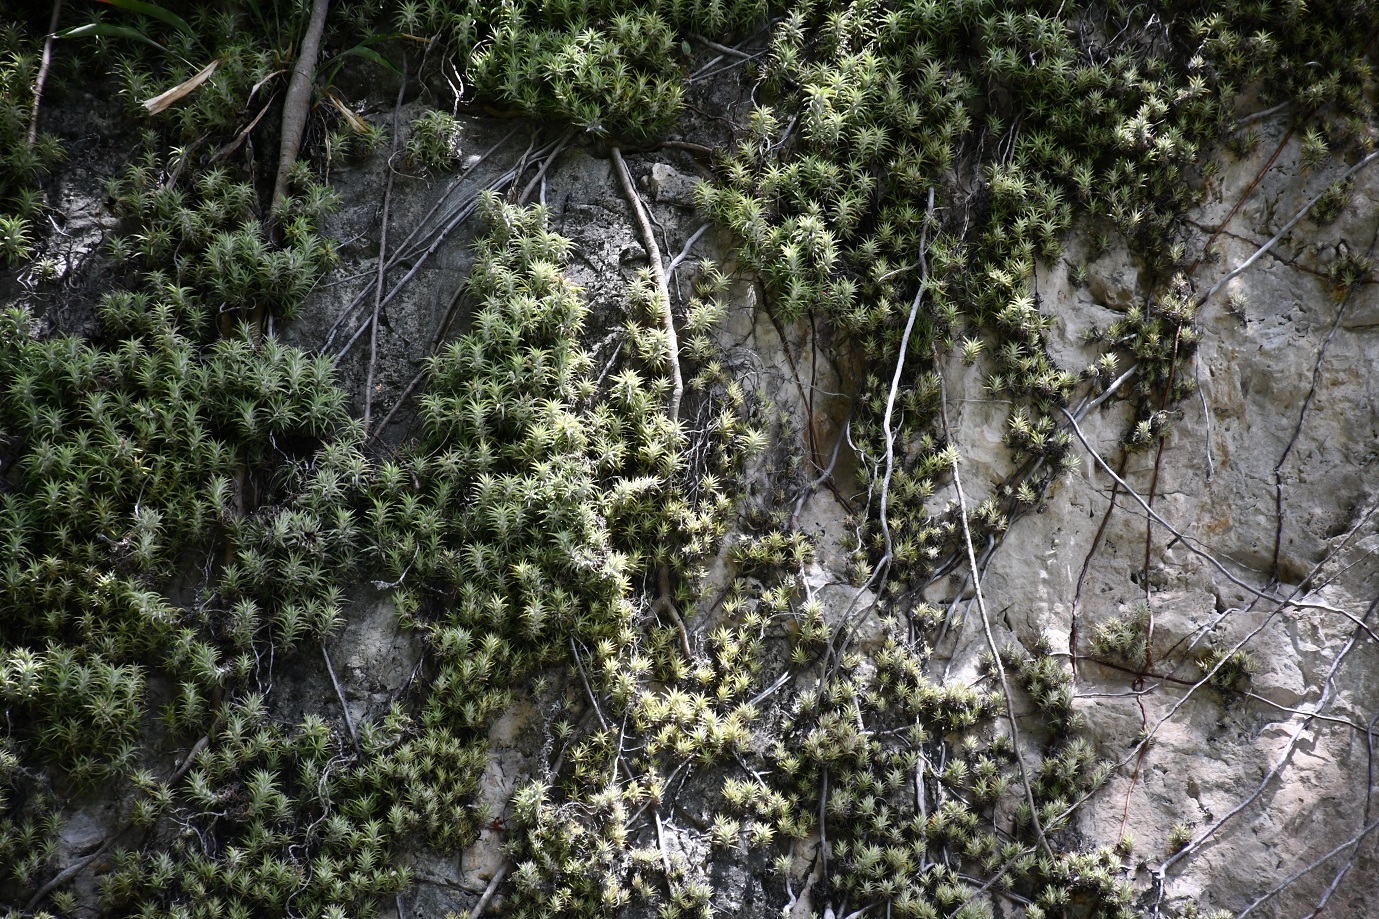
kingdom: Plantae
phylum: Tracheophyta
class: Liliopsida
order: Poales
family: Bromeliaceae
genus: Tillandsia
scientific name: Tillandsia ionantha
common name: Sky plant
